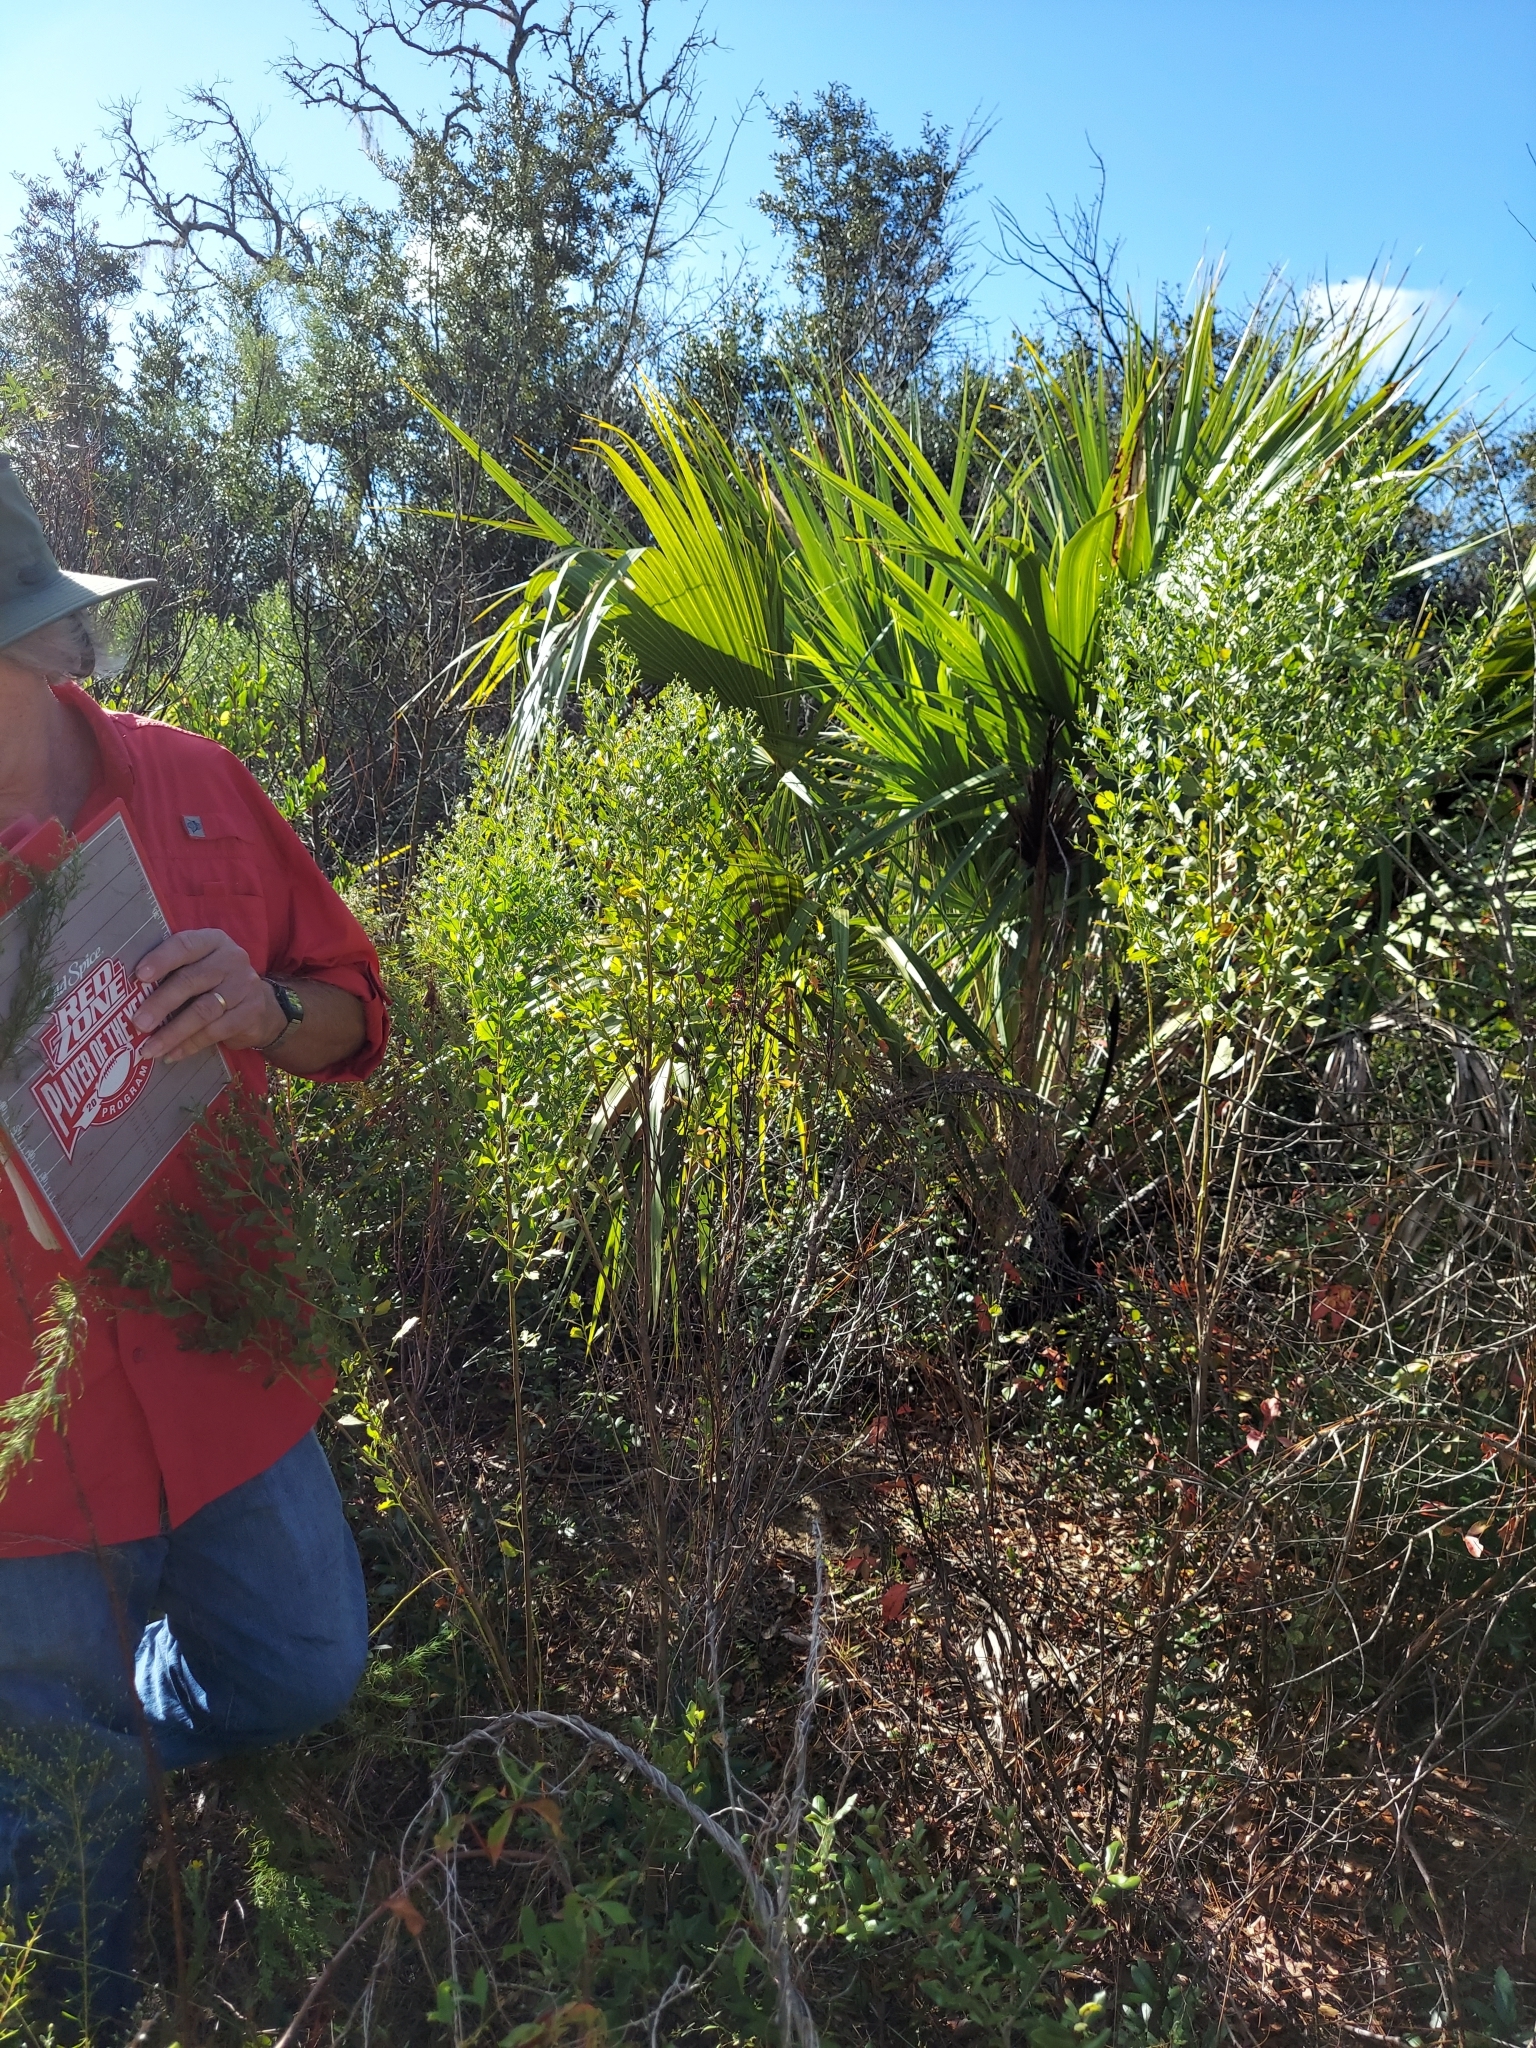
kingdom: Plantae
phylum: Tracheophyta
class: Liliopsida
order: Arecales
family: Arecaceae
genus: Sabal
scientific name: Sabal palmetto
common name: Blue palmetto
